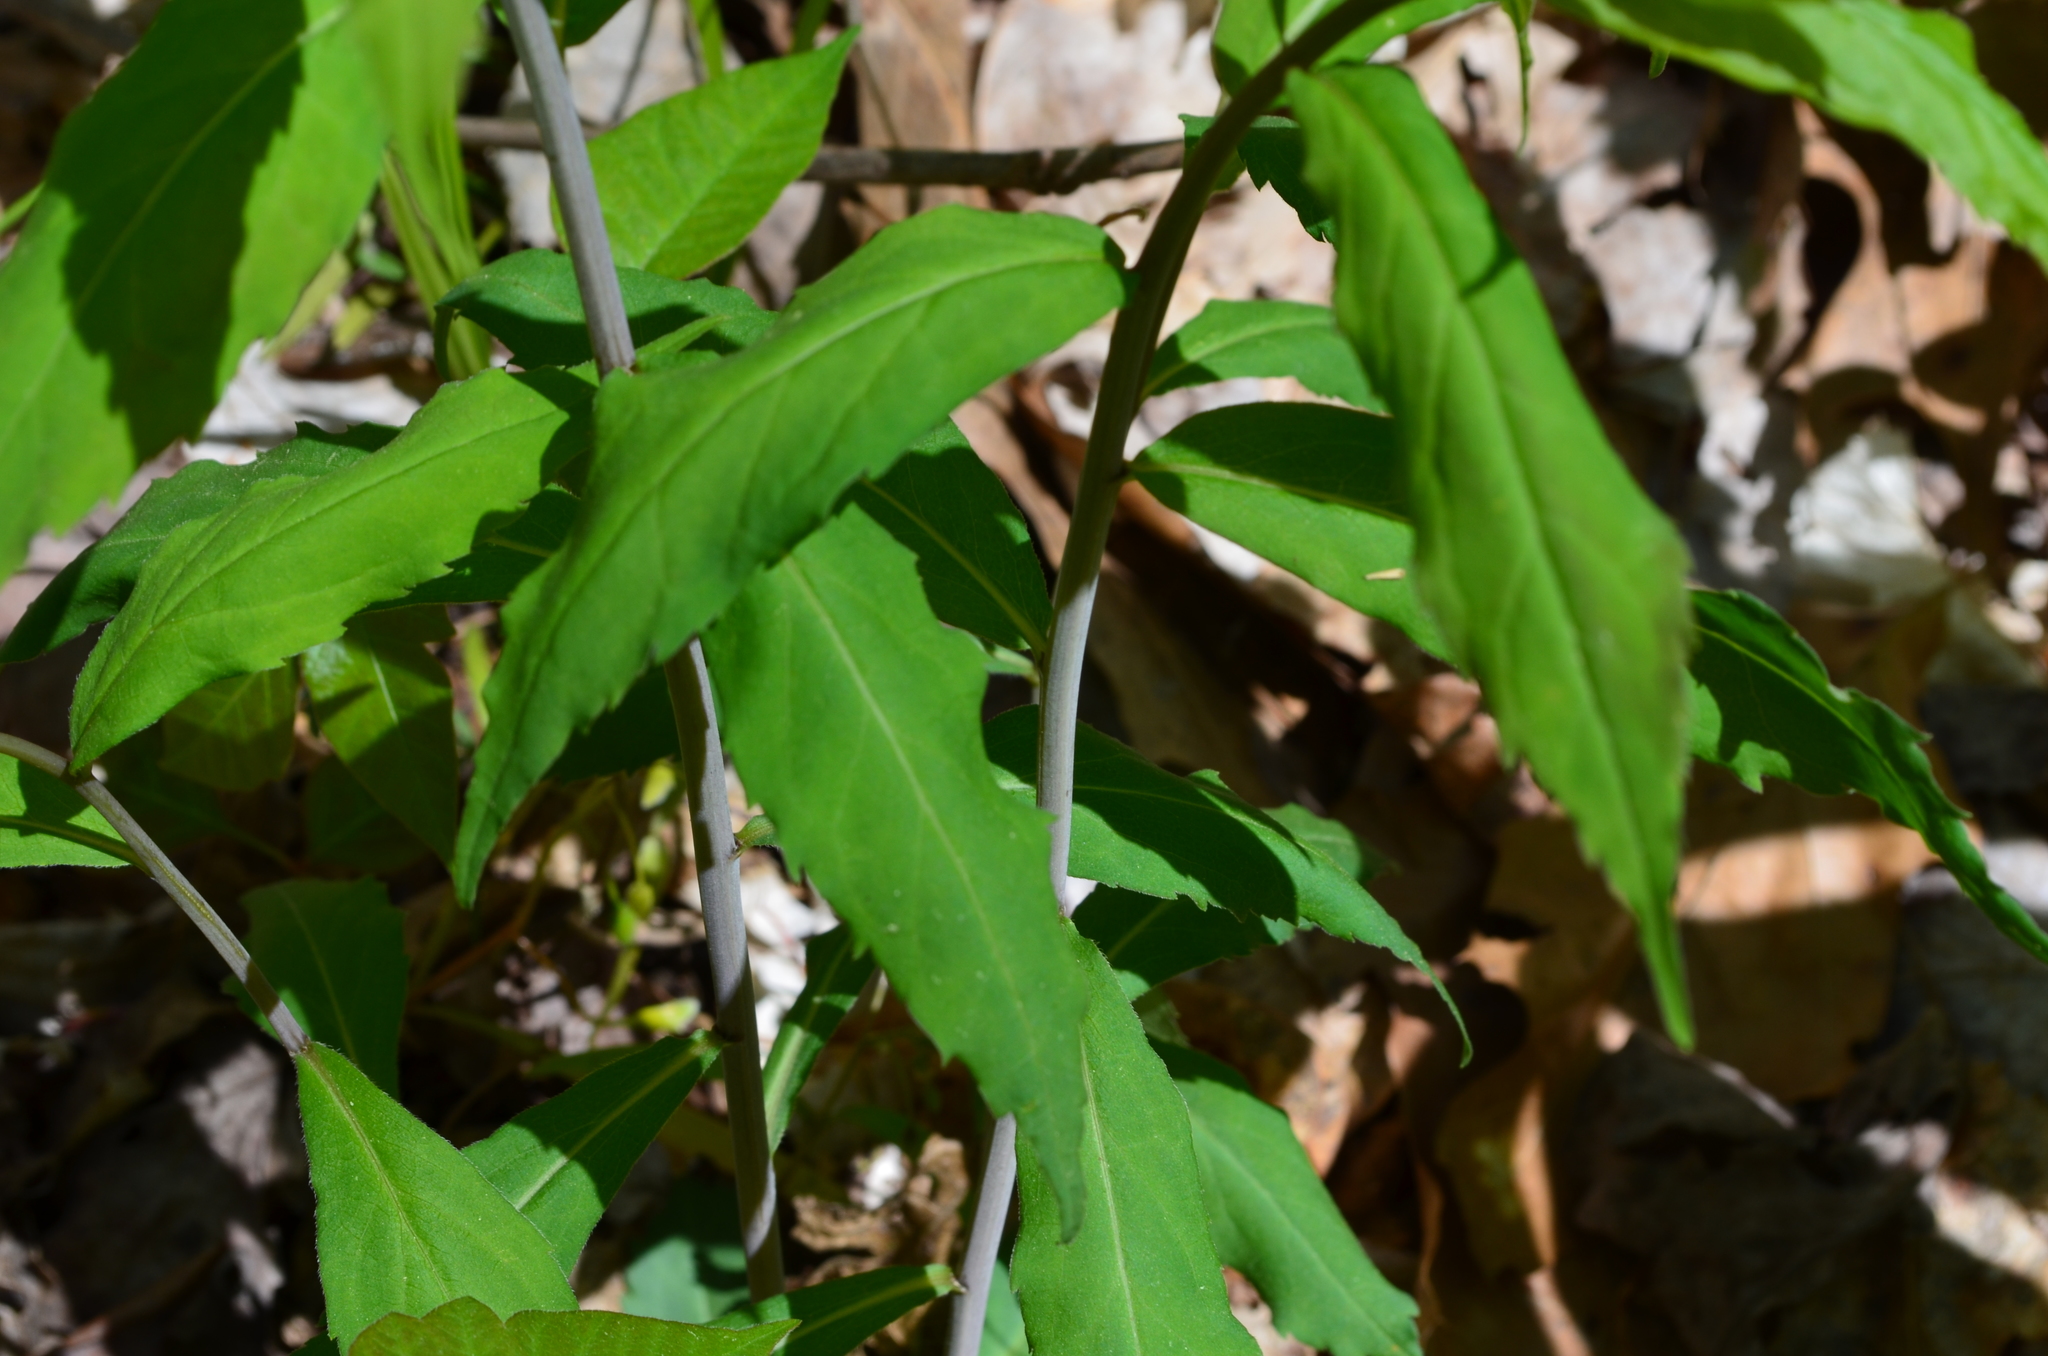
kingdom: Plantae
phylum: Tracheophyta
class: Magnoliopsida
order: Asterales
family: Asteraceae
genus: Solidago
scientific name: Solidago caesia
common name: Woodland goldenrod
